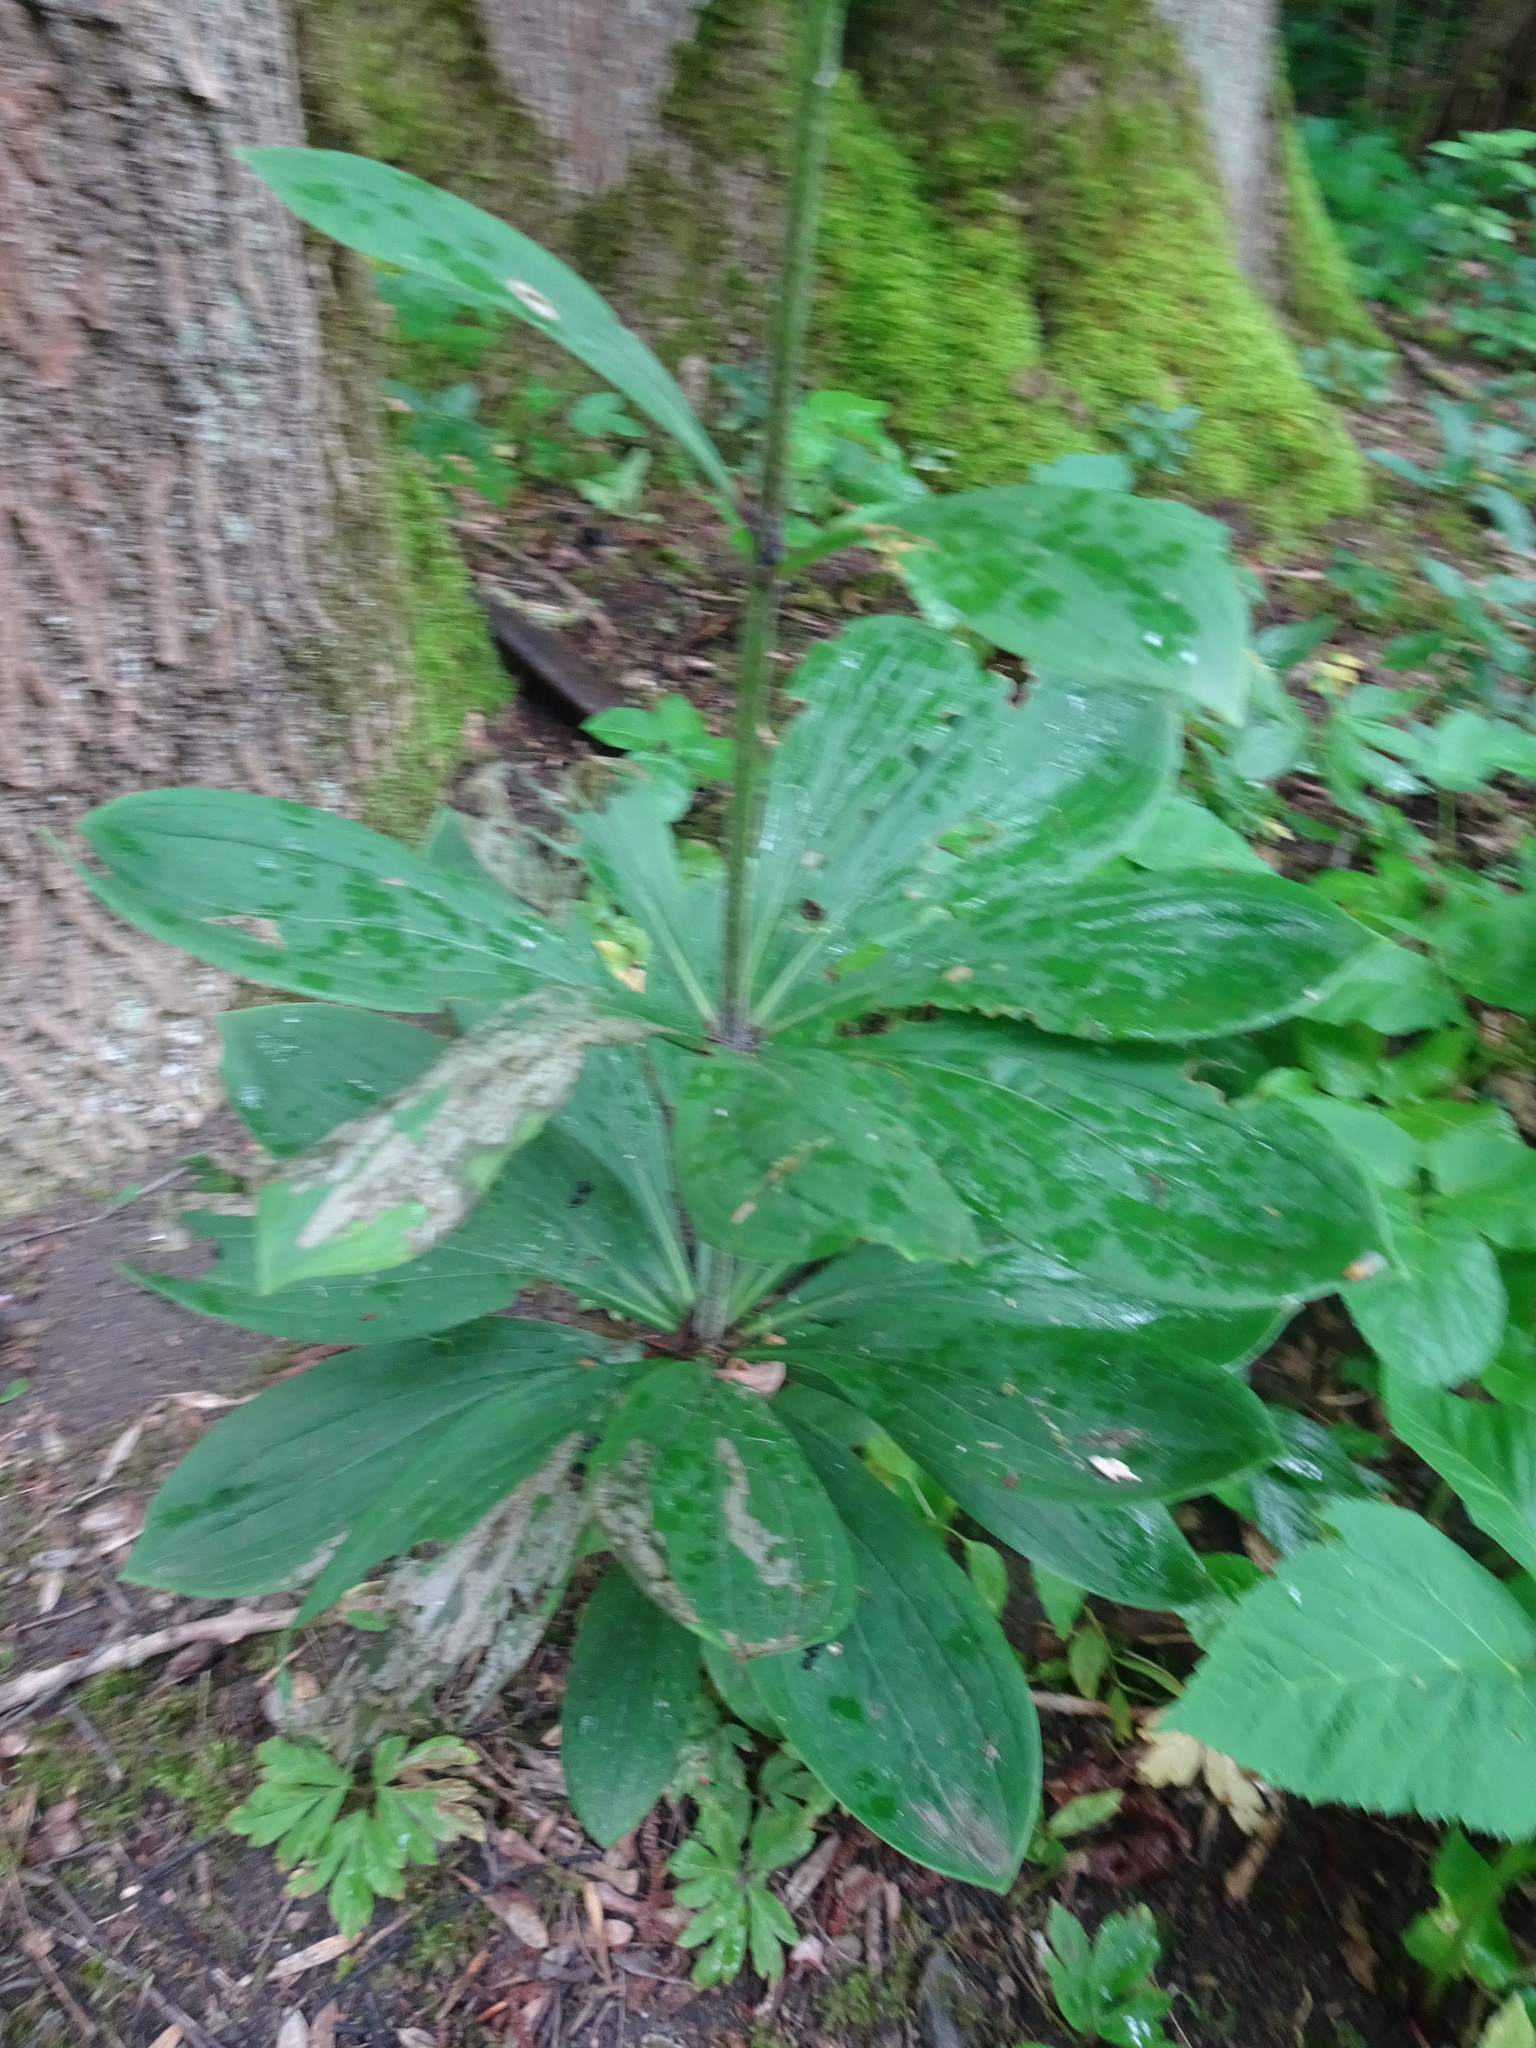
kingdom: Plantae
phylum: Tracheophyta
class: Liliopsida
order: Liliales
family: Liliaceae
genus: Lilium
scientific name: Lilium martagon
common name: Martagon lily
